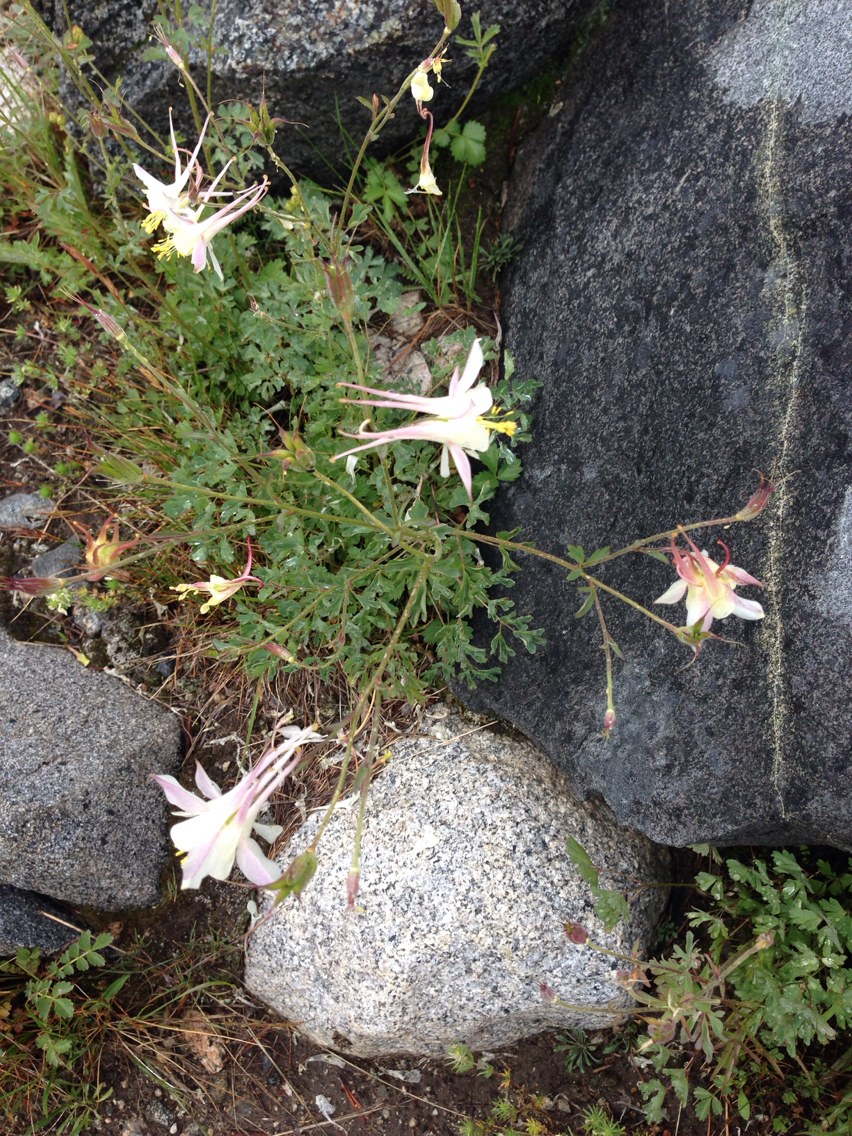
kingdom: Plantae
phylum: Tracheophyta
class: Magnoliopsida
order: Ranunculales
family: Ranunculaceae
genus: Aquilegia
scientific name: Aquilegia pubescens
